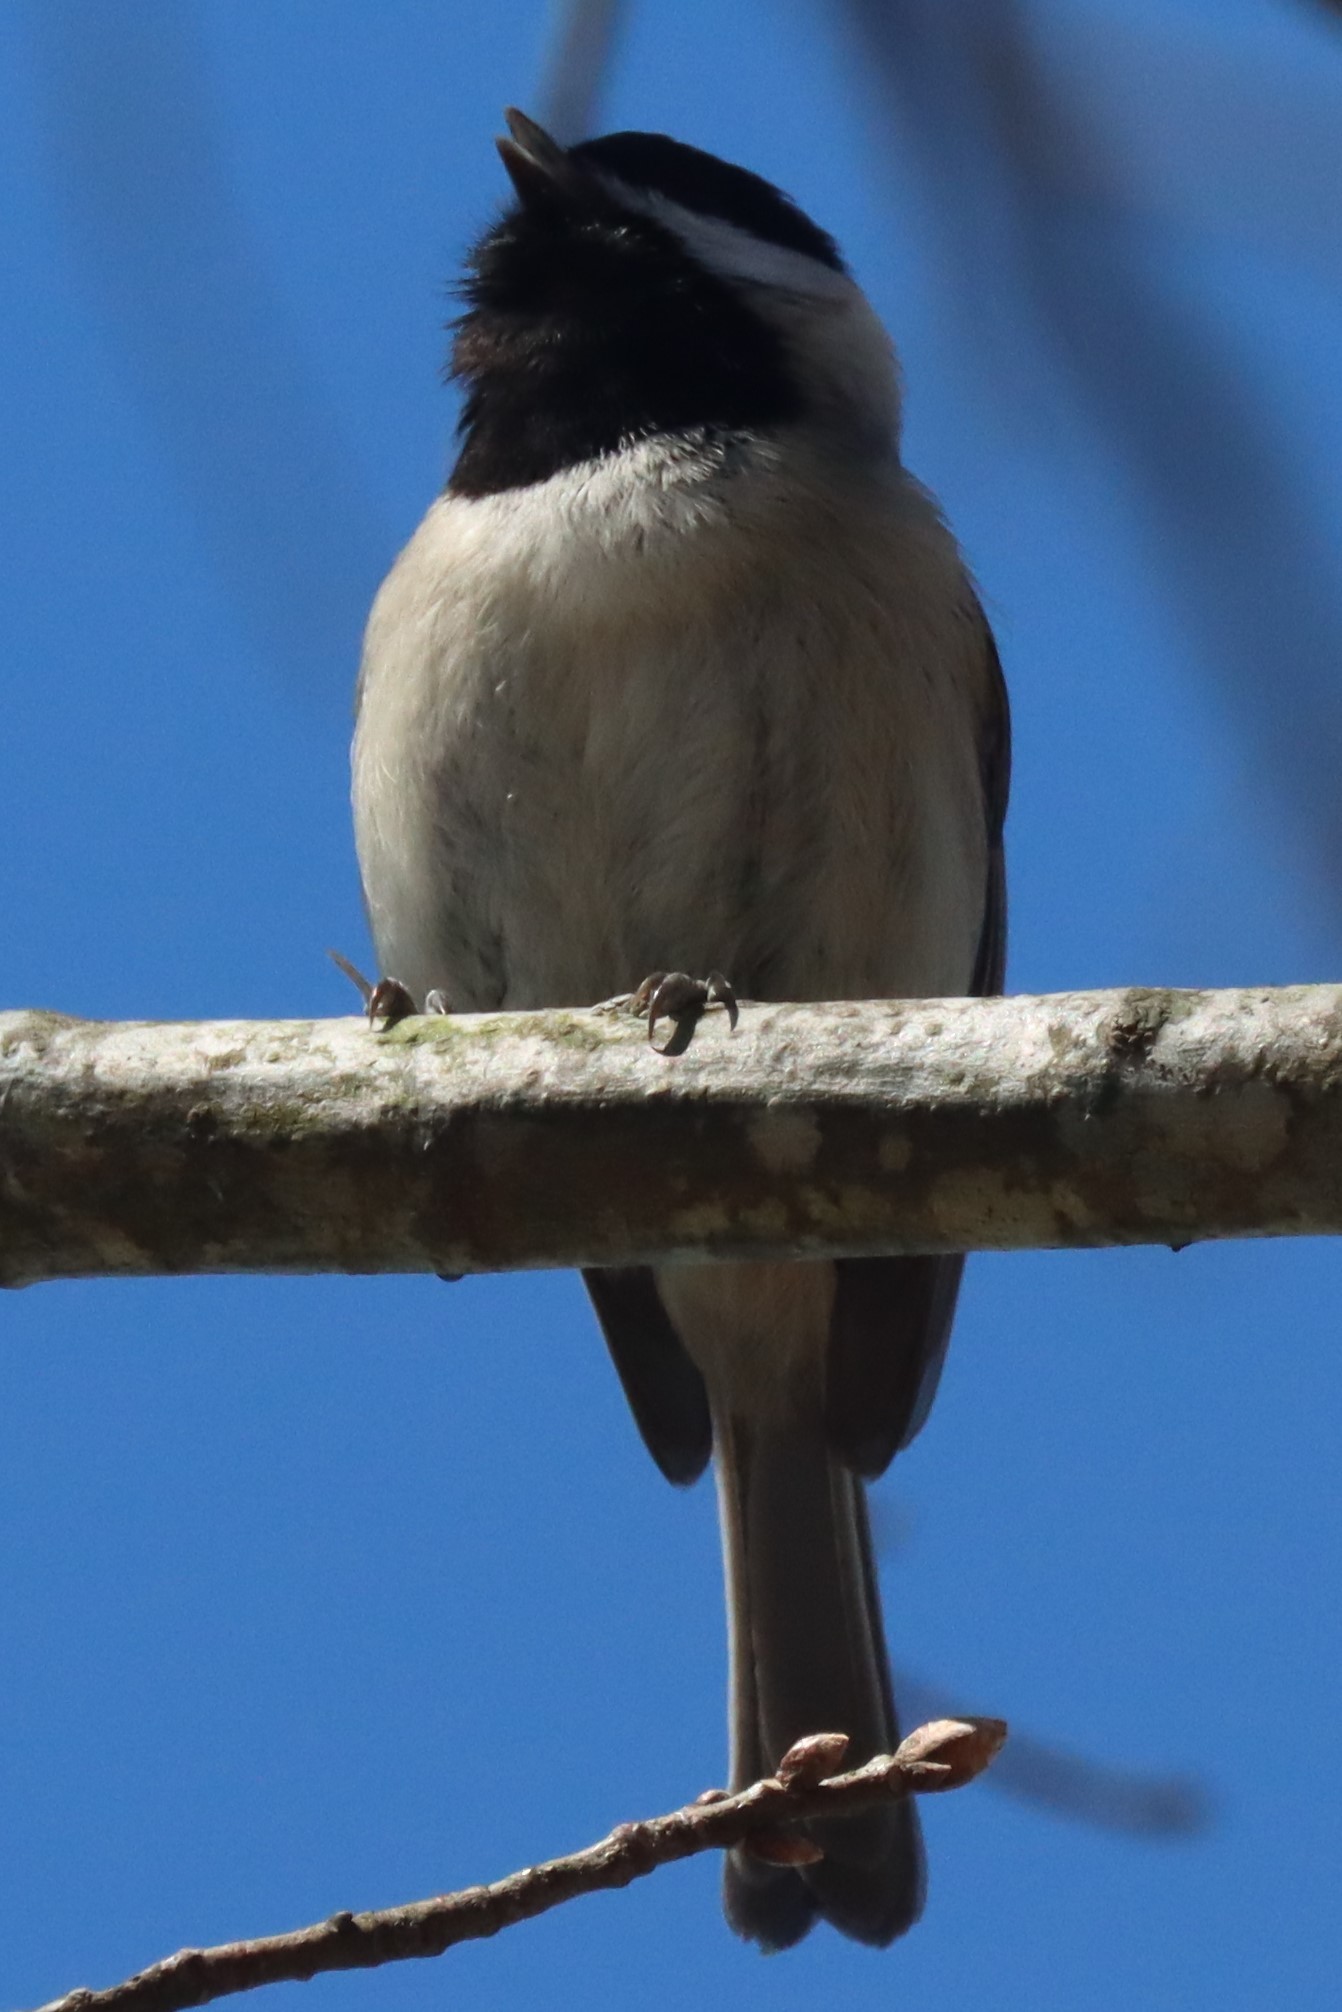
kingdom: Animalia
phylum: Chordata
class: Aves
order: Passeriformes
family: Paridae
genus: Poecile
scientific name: Poecile carolinensis
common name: Carolina chickadee
